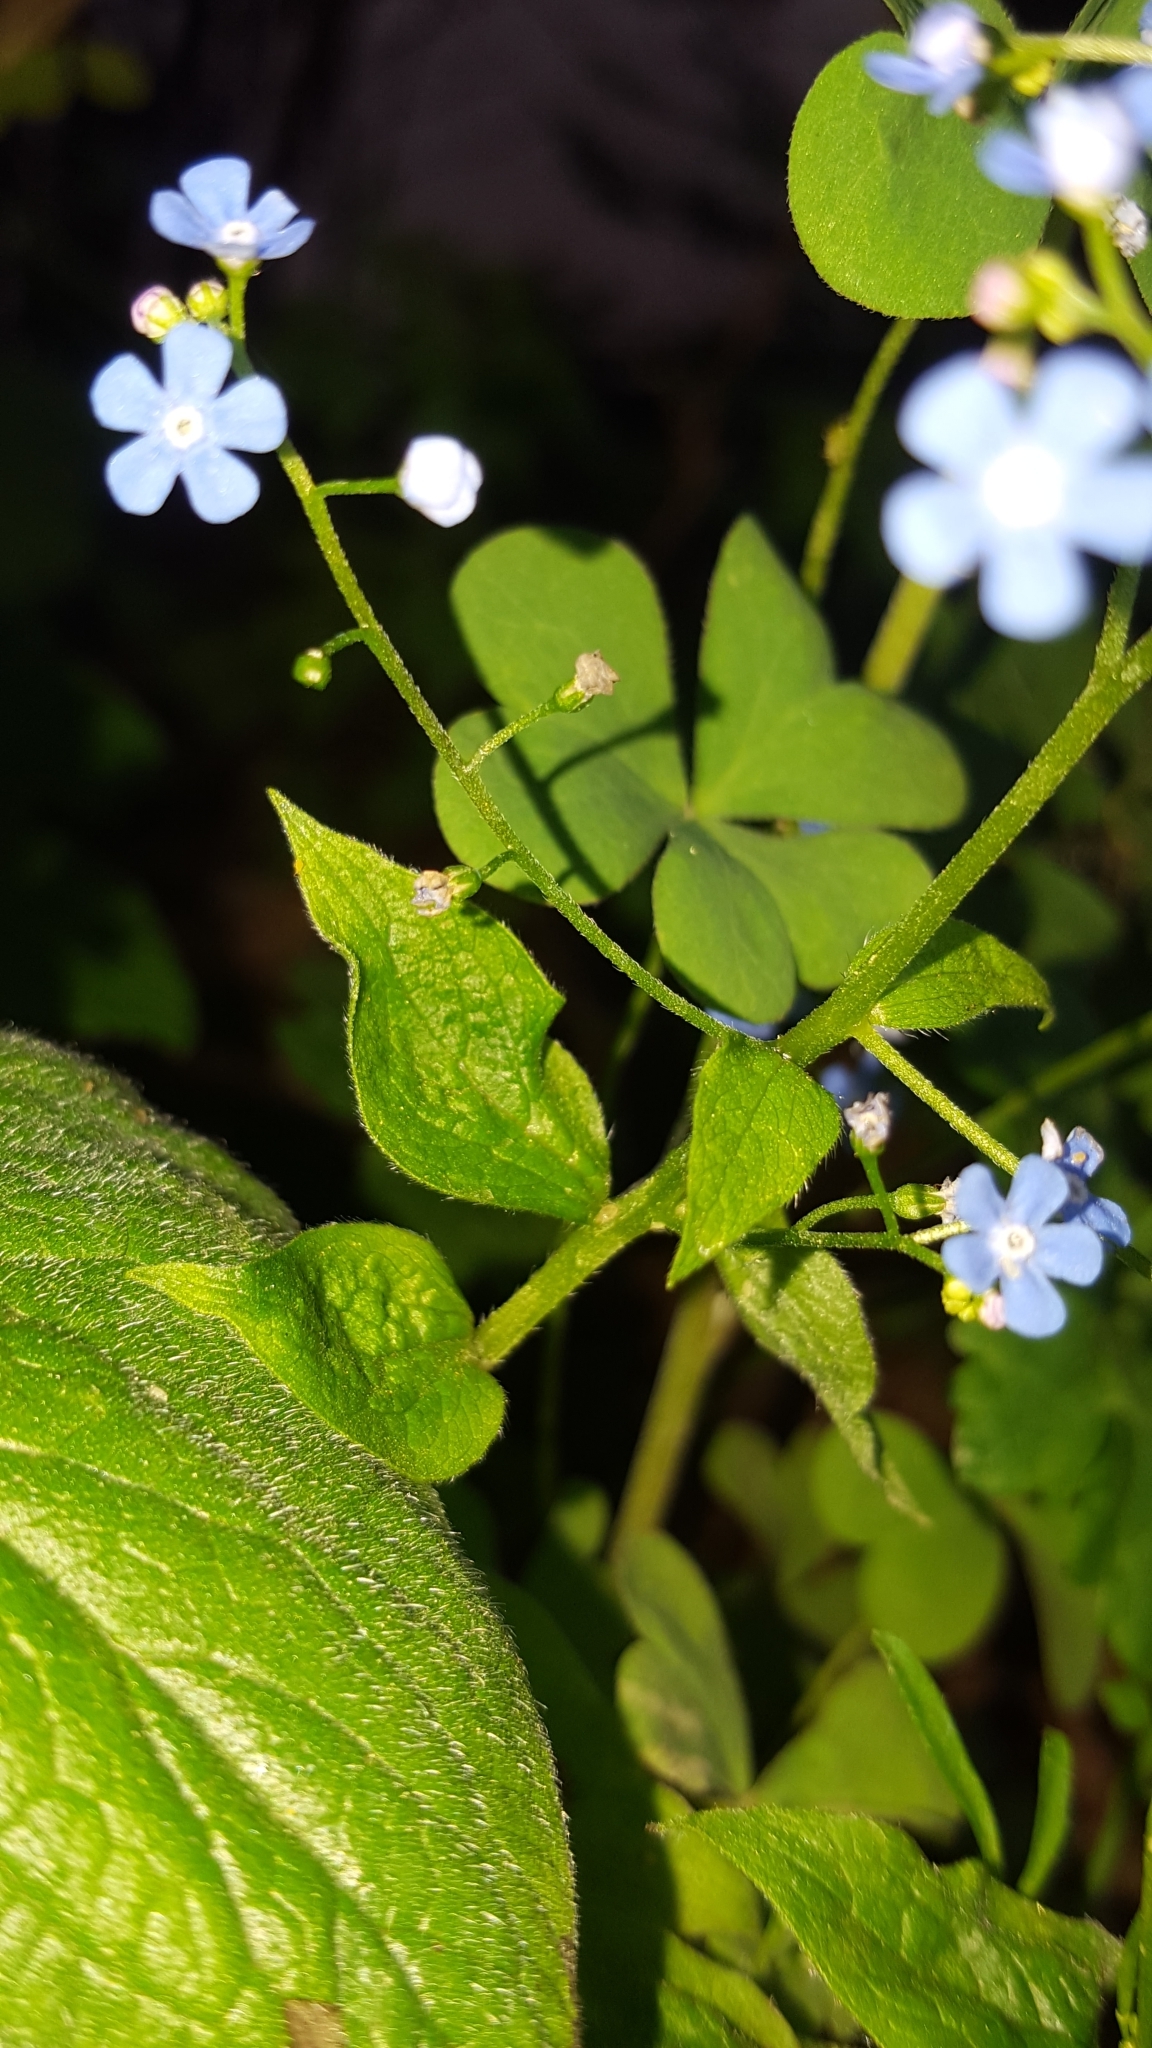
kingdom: Plantae
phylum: Tracheophyta
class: Magnoliopsida
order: Boraginales
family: Boraginaceae
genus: Brunnera
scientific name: Brunnera macrophylla
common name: Great forget-me-not
